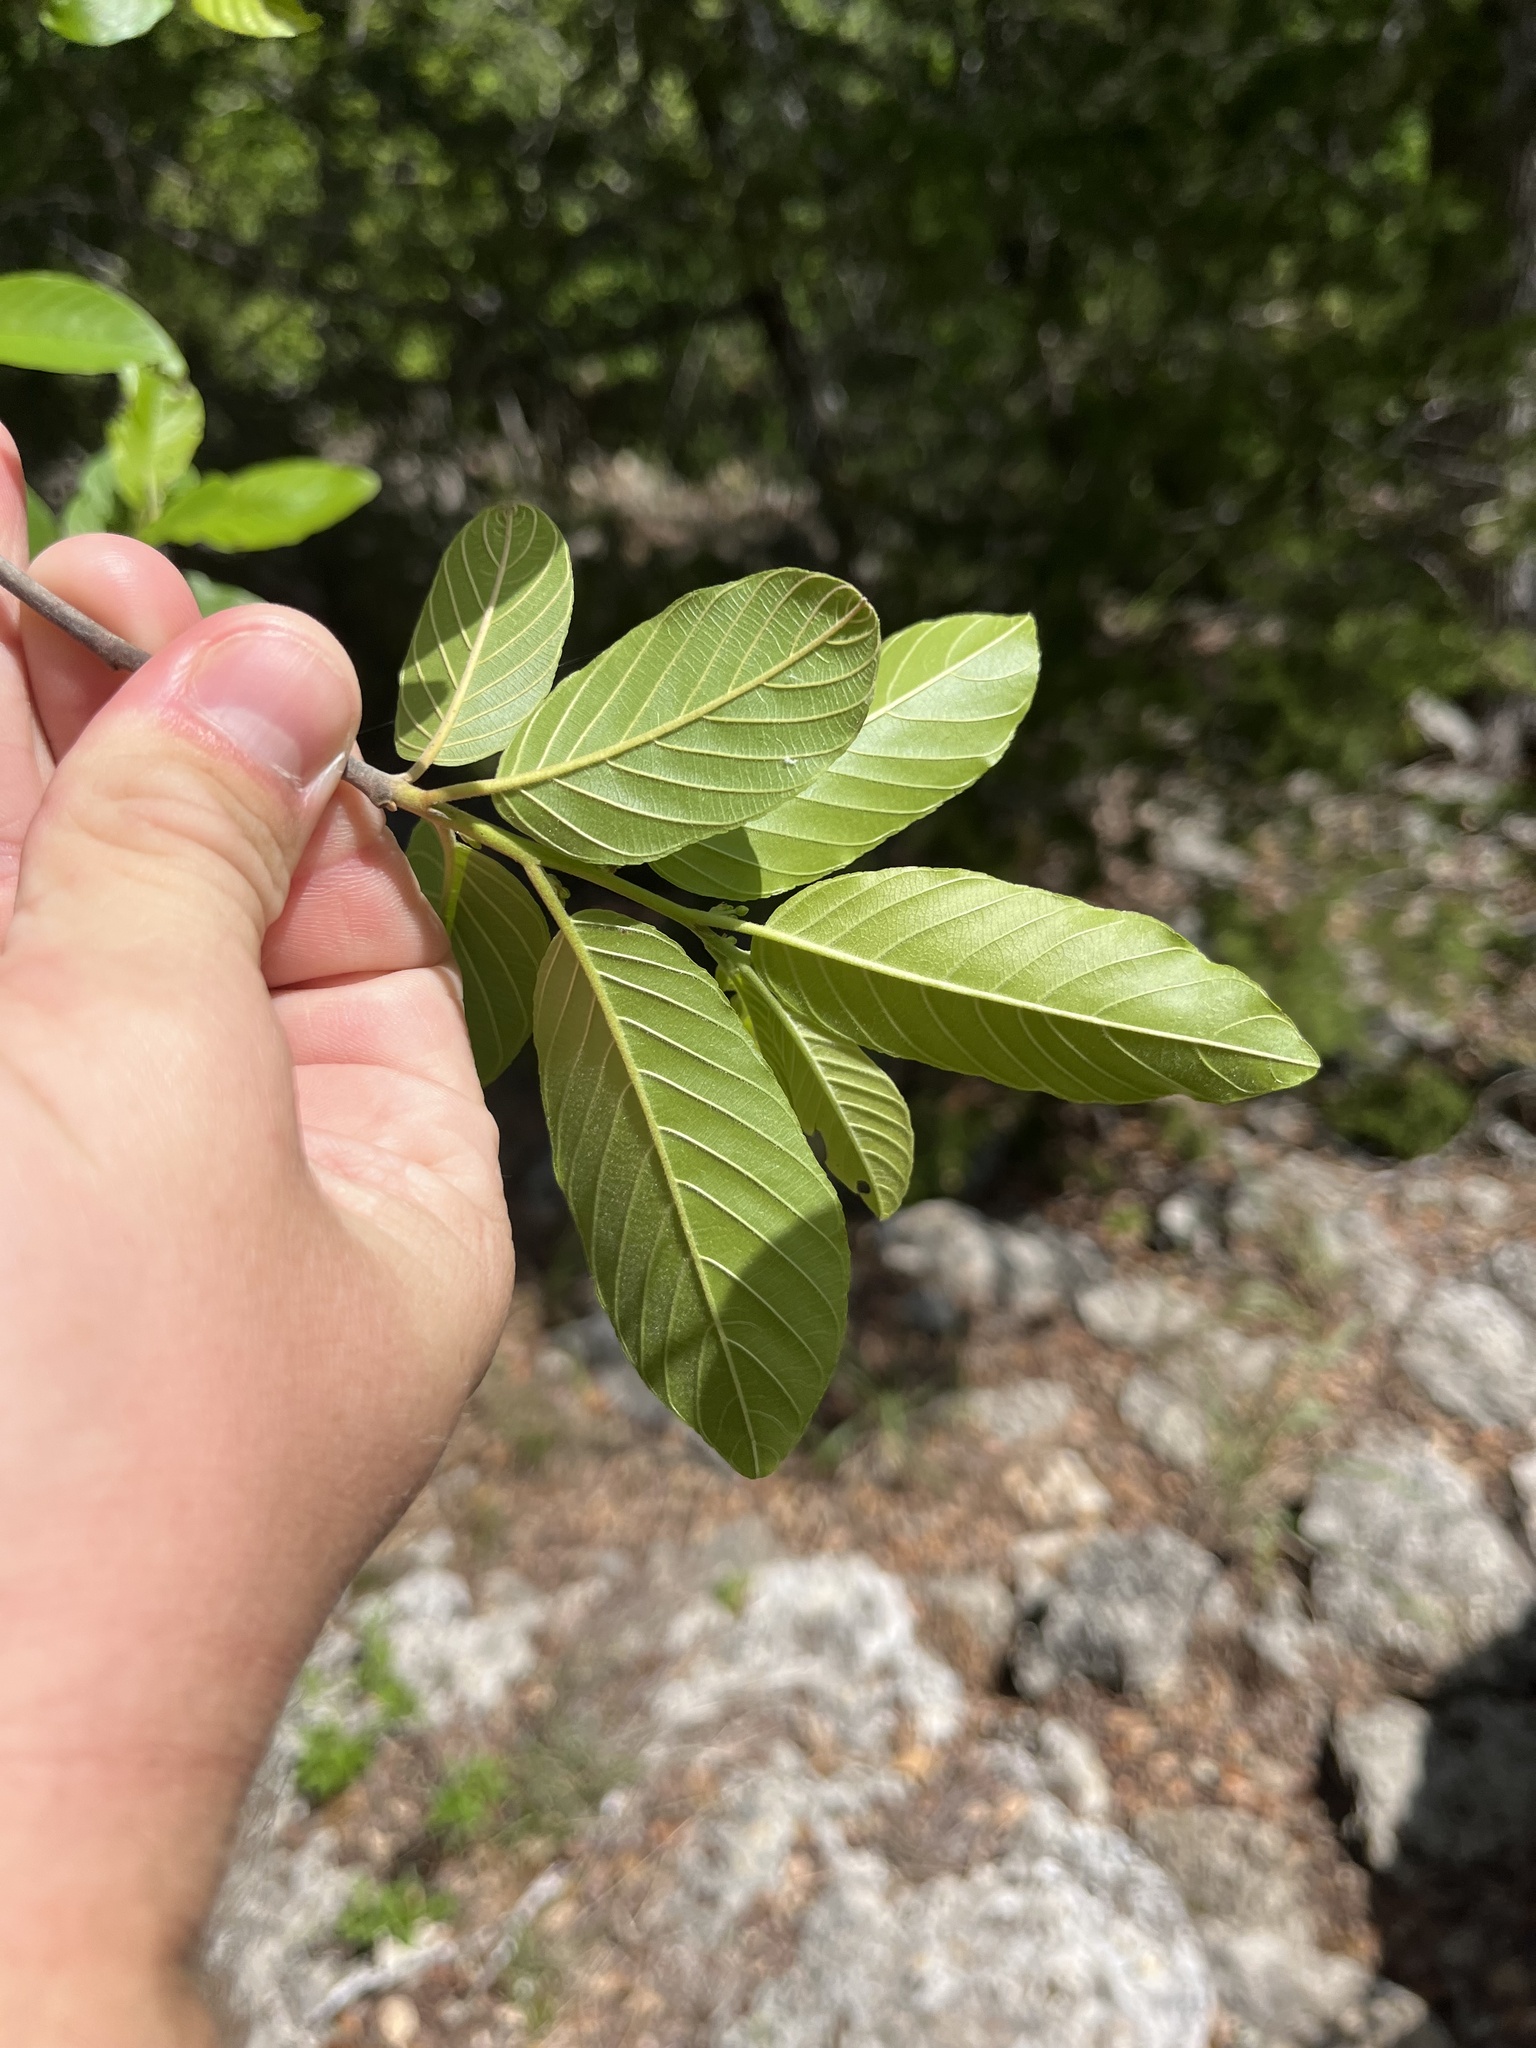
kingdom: Plantae
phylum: Tracheophyta
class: Magnoliopsida
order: Rosales
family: Rhamnaceae
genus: Frangula
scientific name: Frangula caroliniana
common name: Carolina buckthorn
